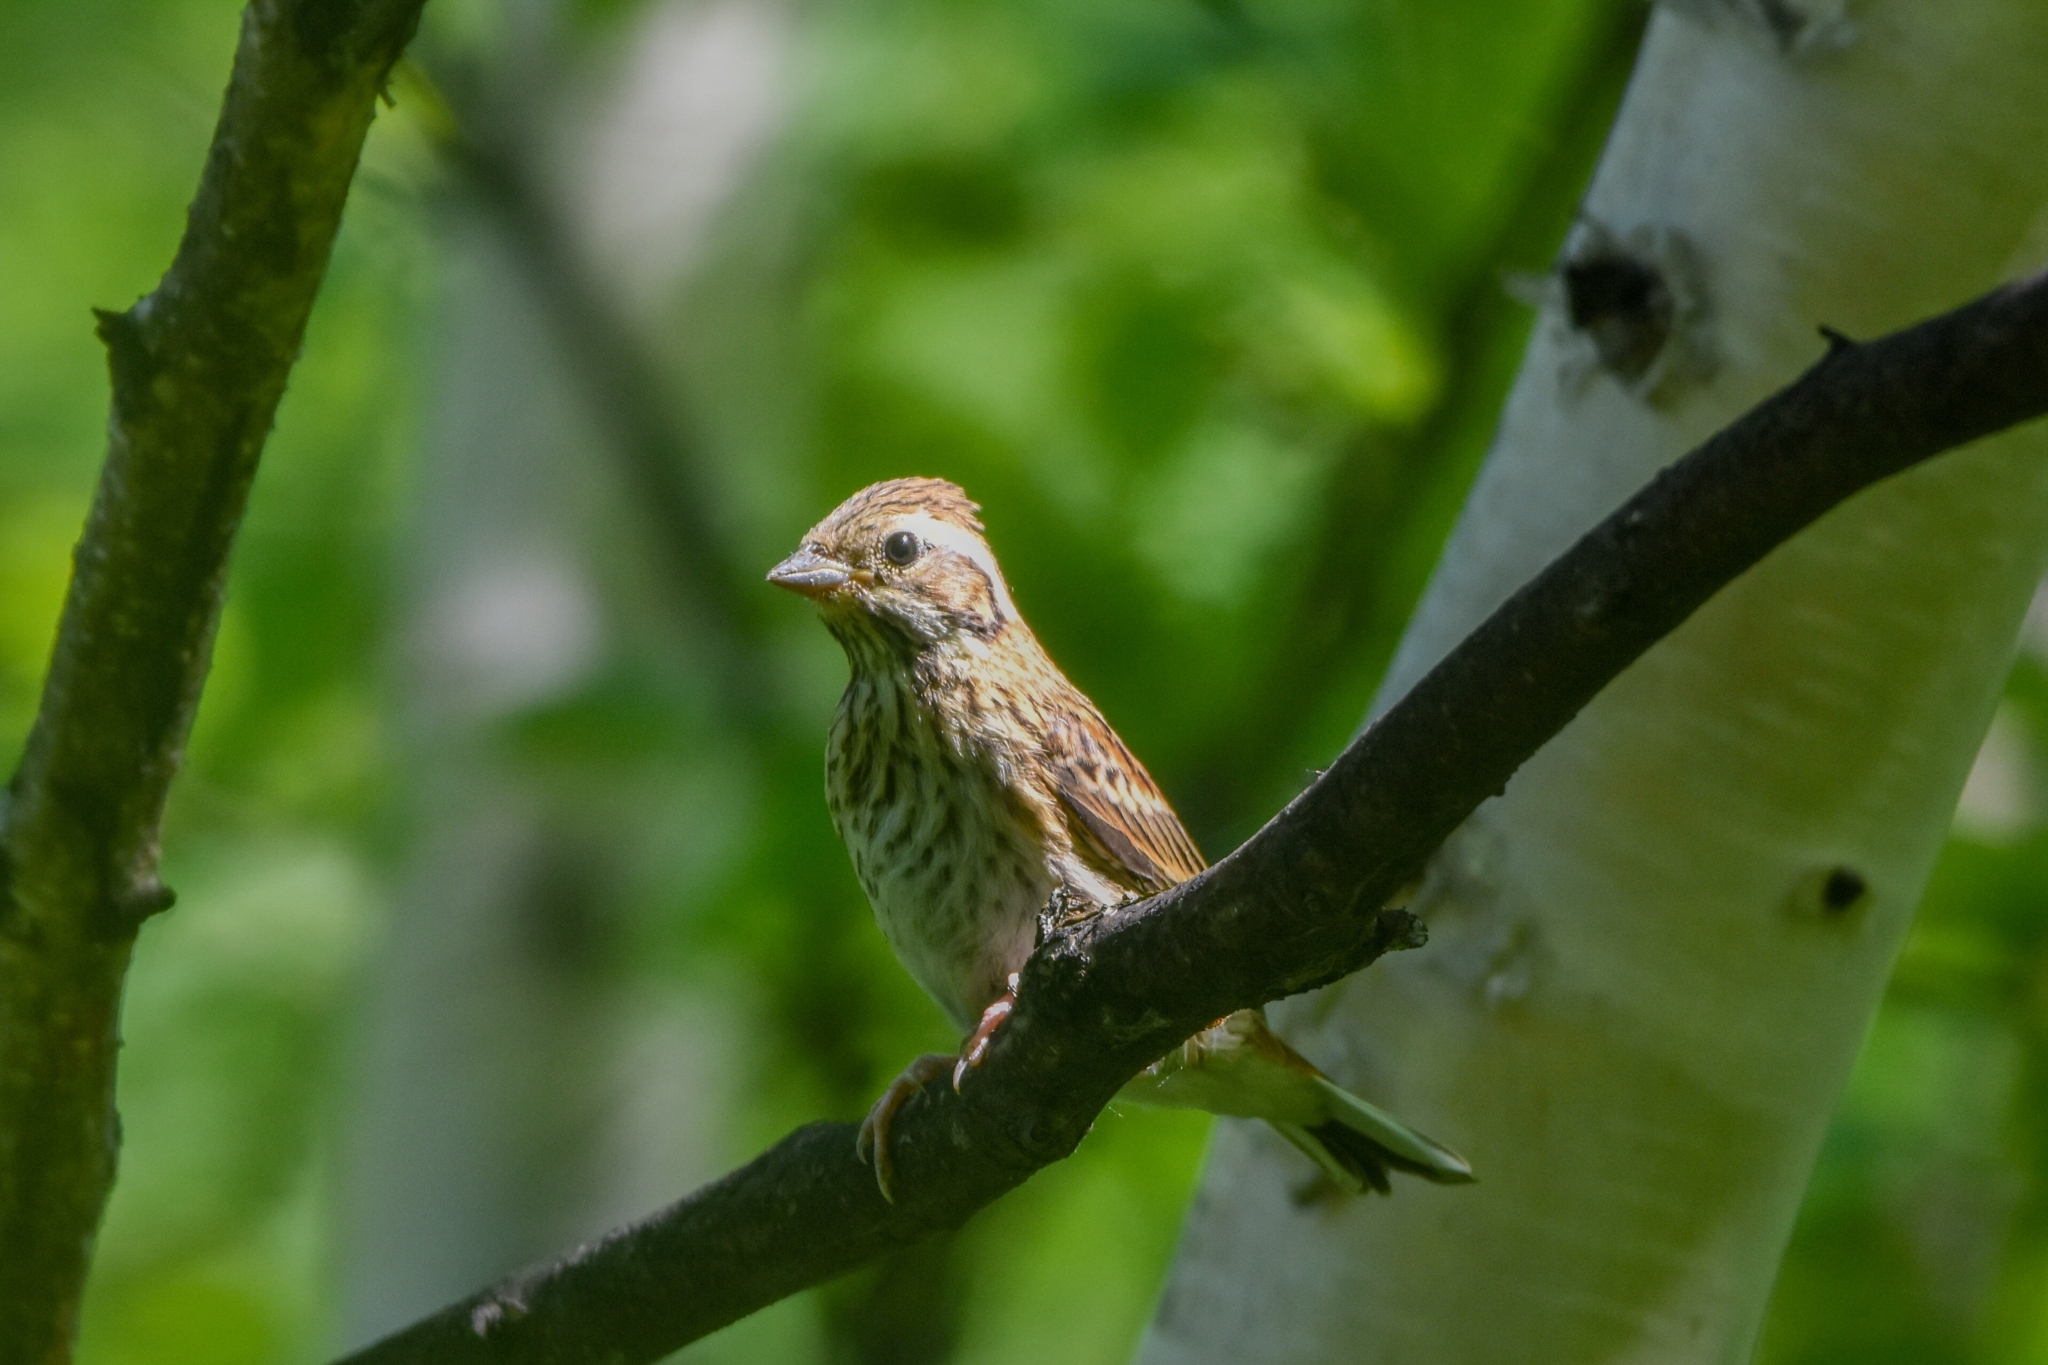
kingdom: Animalia
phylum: Chordata
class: Aves
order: Passeriformes
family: Emberizidae
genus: Emberiza
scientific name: Emberiza rustica
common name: Rustic bunting
